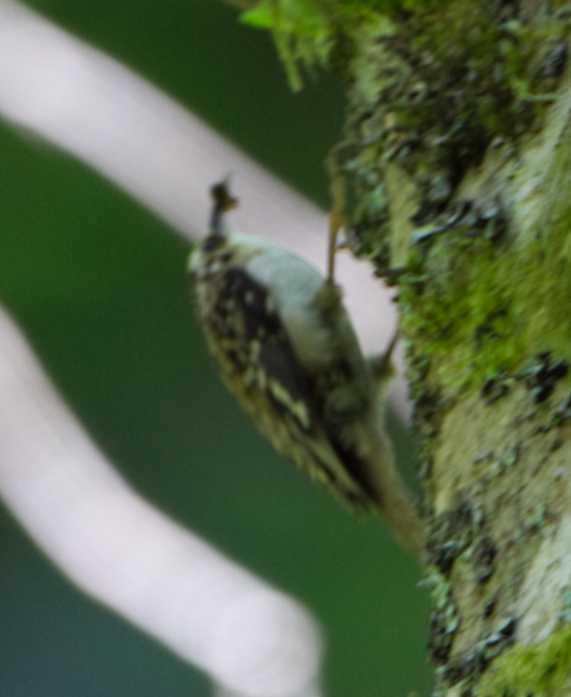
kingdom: Animalia
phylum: Chordata
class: Aves
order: Passeriformes
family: Certhiidae
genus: Certhia
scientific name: Certhia americana
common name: Brown creeper
